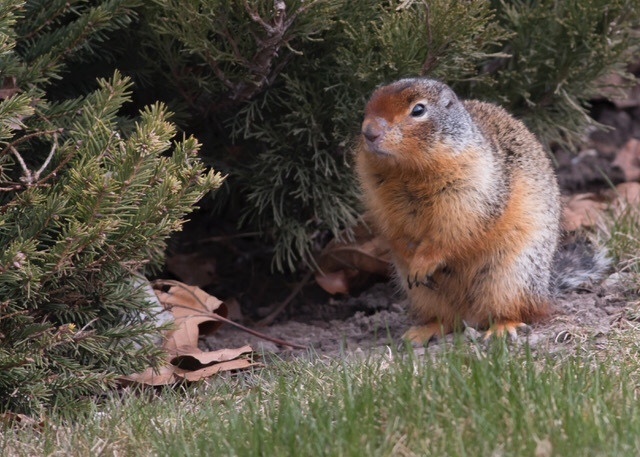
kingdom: Animalia
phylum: Chordata
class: Mammalia
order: Rodentia
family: Sciuridae
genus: Urocitellus
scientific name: Urocitellus columbianus
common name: Columbian ground squirrel
